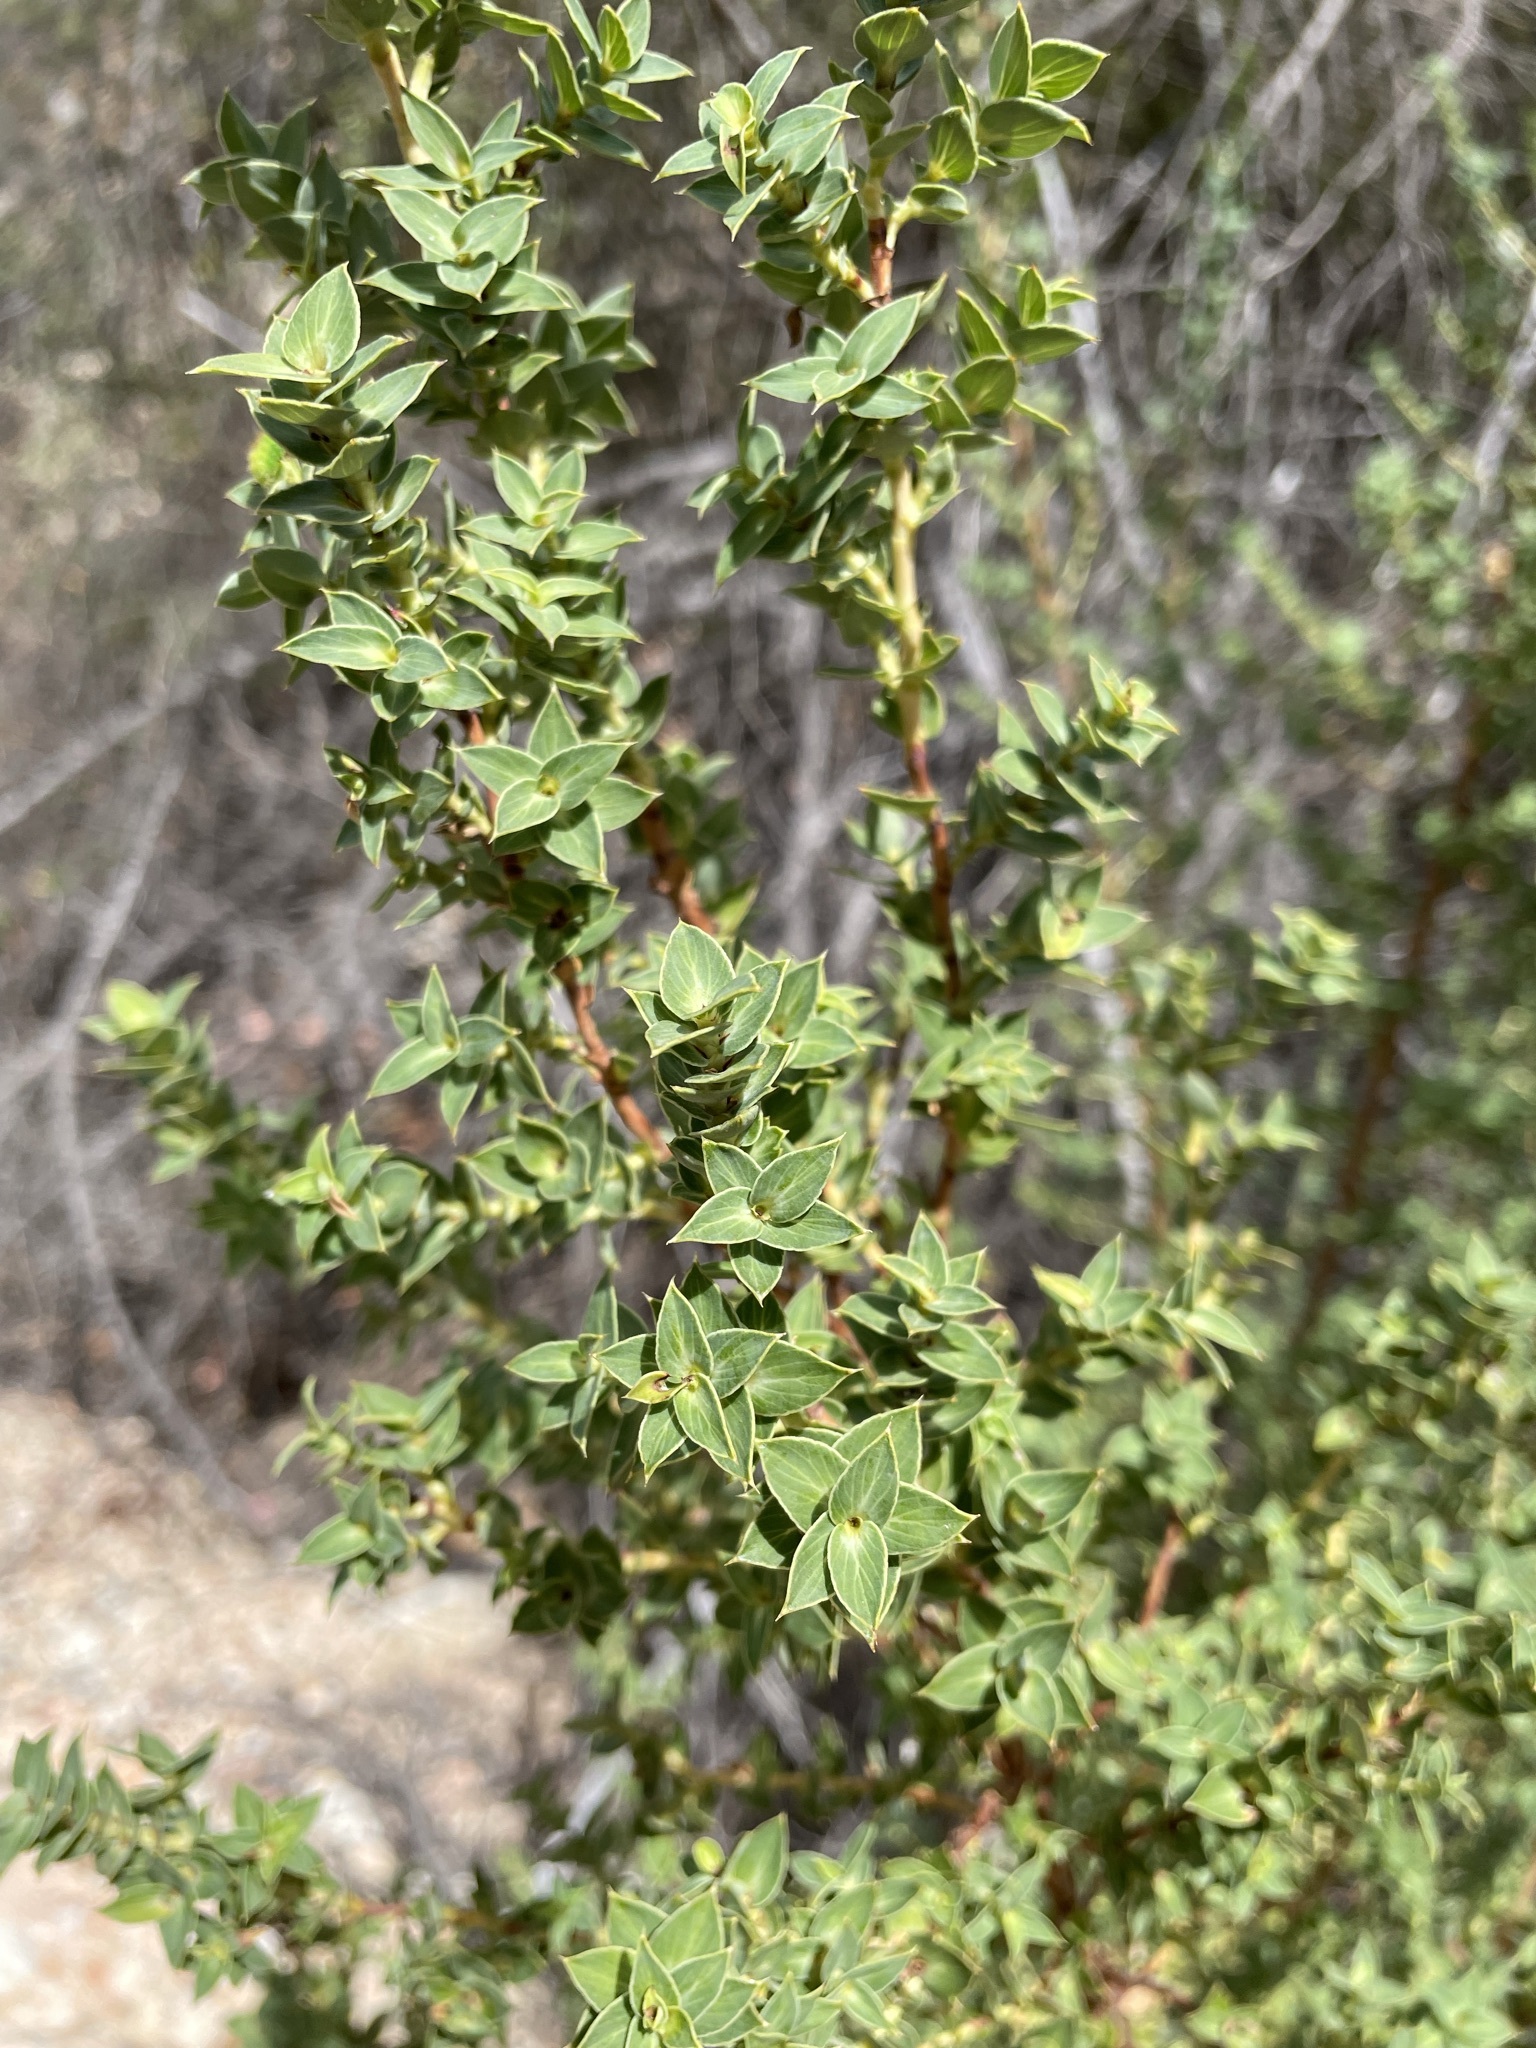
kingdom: Plantae
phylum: Tracheophyta
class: Magnoliopsida
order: Rosales
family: Rosaceae
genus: Cliffortia
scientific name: Cliffortia ilicifolia
